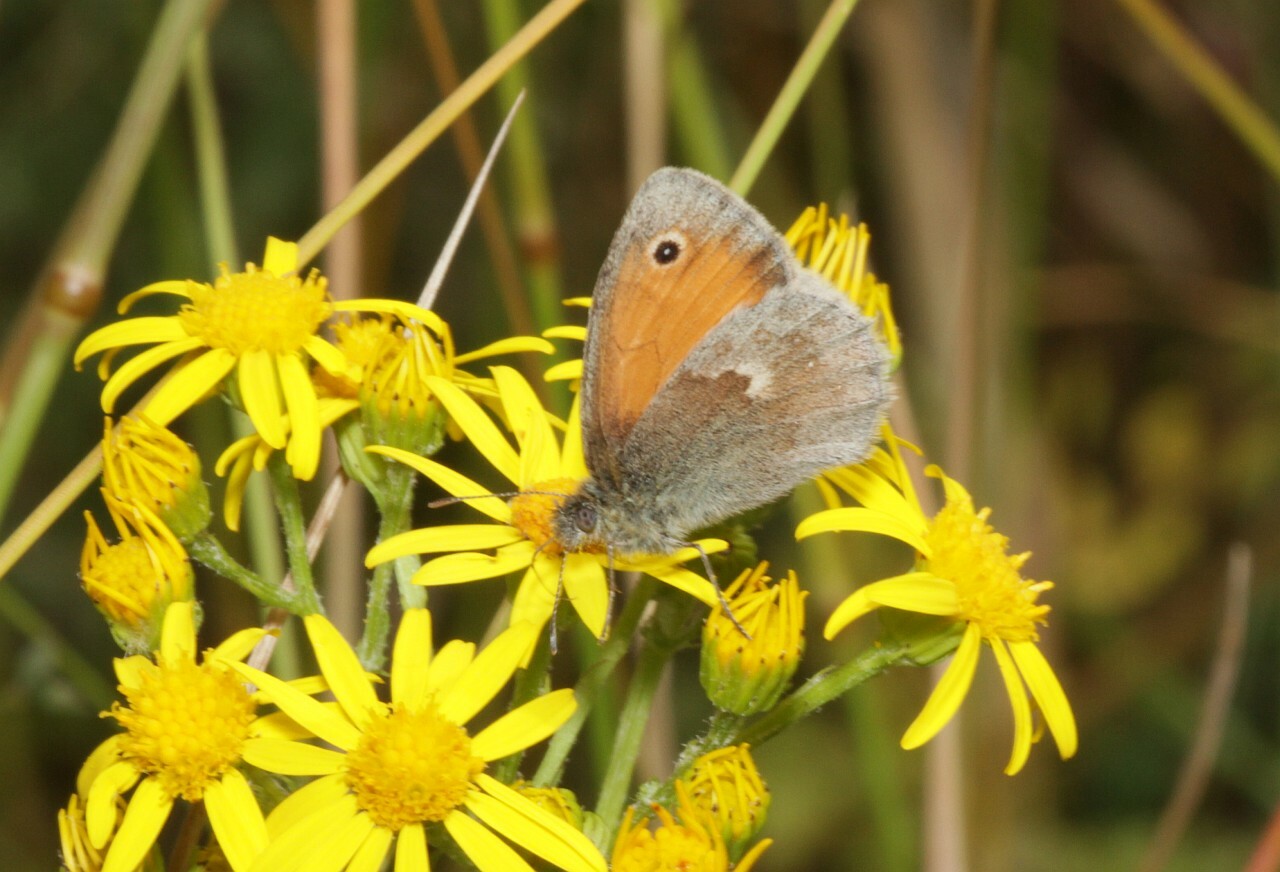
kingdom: Animalia
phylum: Arthropoda
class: Insecta
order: Lepidoptera
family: Nymphalidae
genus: Coenonympha
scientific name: Coenonympha pamphilus
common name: Small heath
